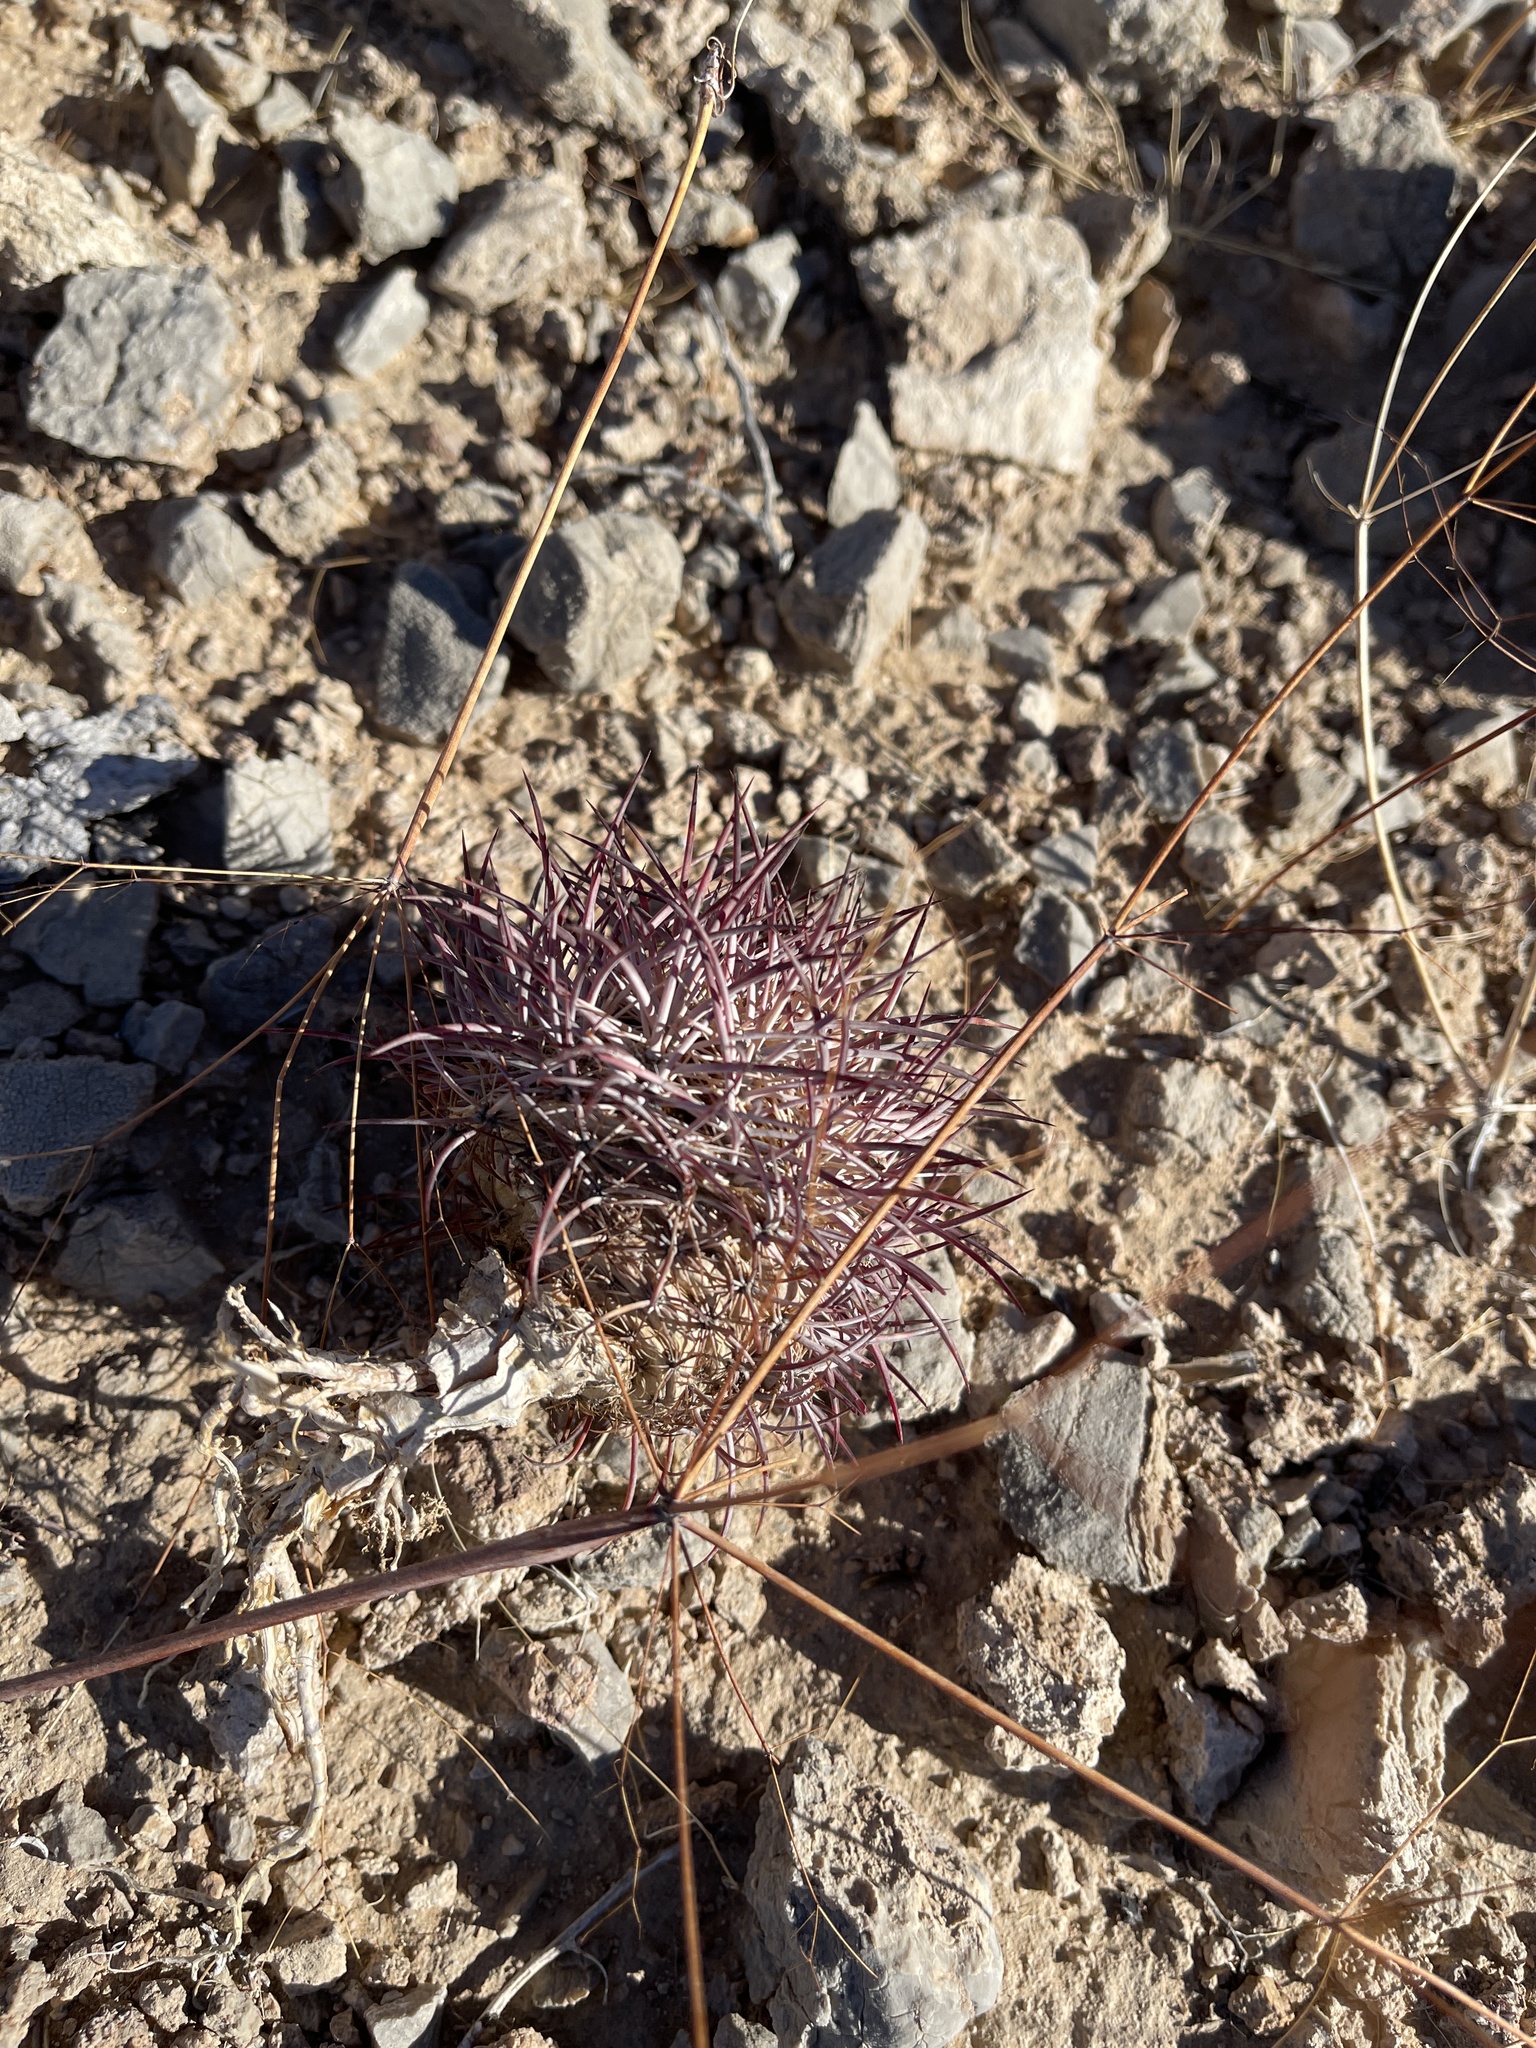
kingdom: Plantae
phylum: Tracheophyta
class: Magnoliopsida
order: Caryophyllales
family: Cactaceae
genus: Sclerocactus
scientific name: Sclerocactus johnsonii
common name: Eight-spine fishhook cactus
